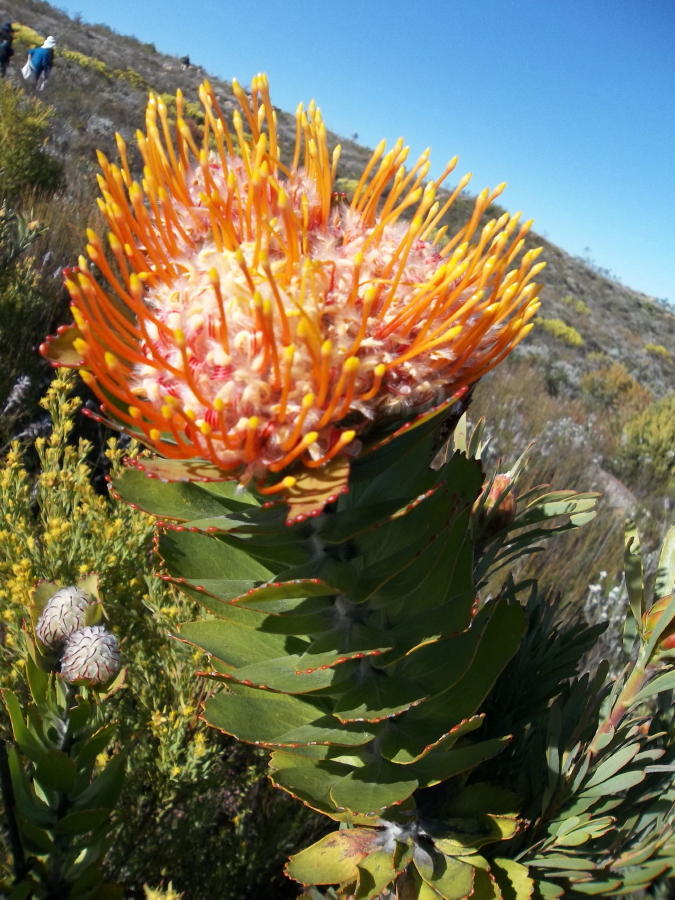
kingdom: Plantae
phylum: Tracheophyta
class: Magnoliopsida
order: Proteales
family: Proteaceae
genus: Leucospermum
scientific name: Leucospermum pluridens
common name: Robinson pincushion
